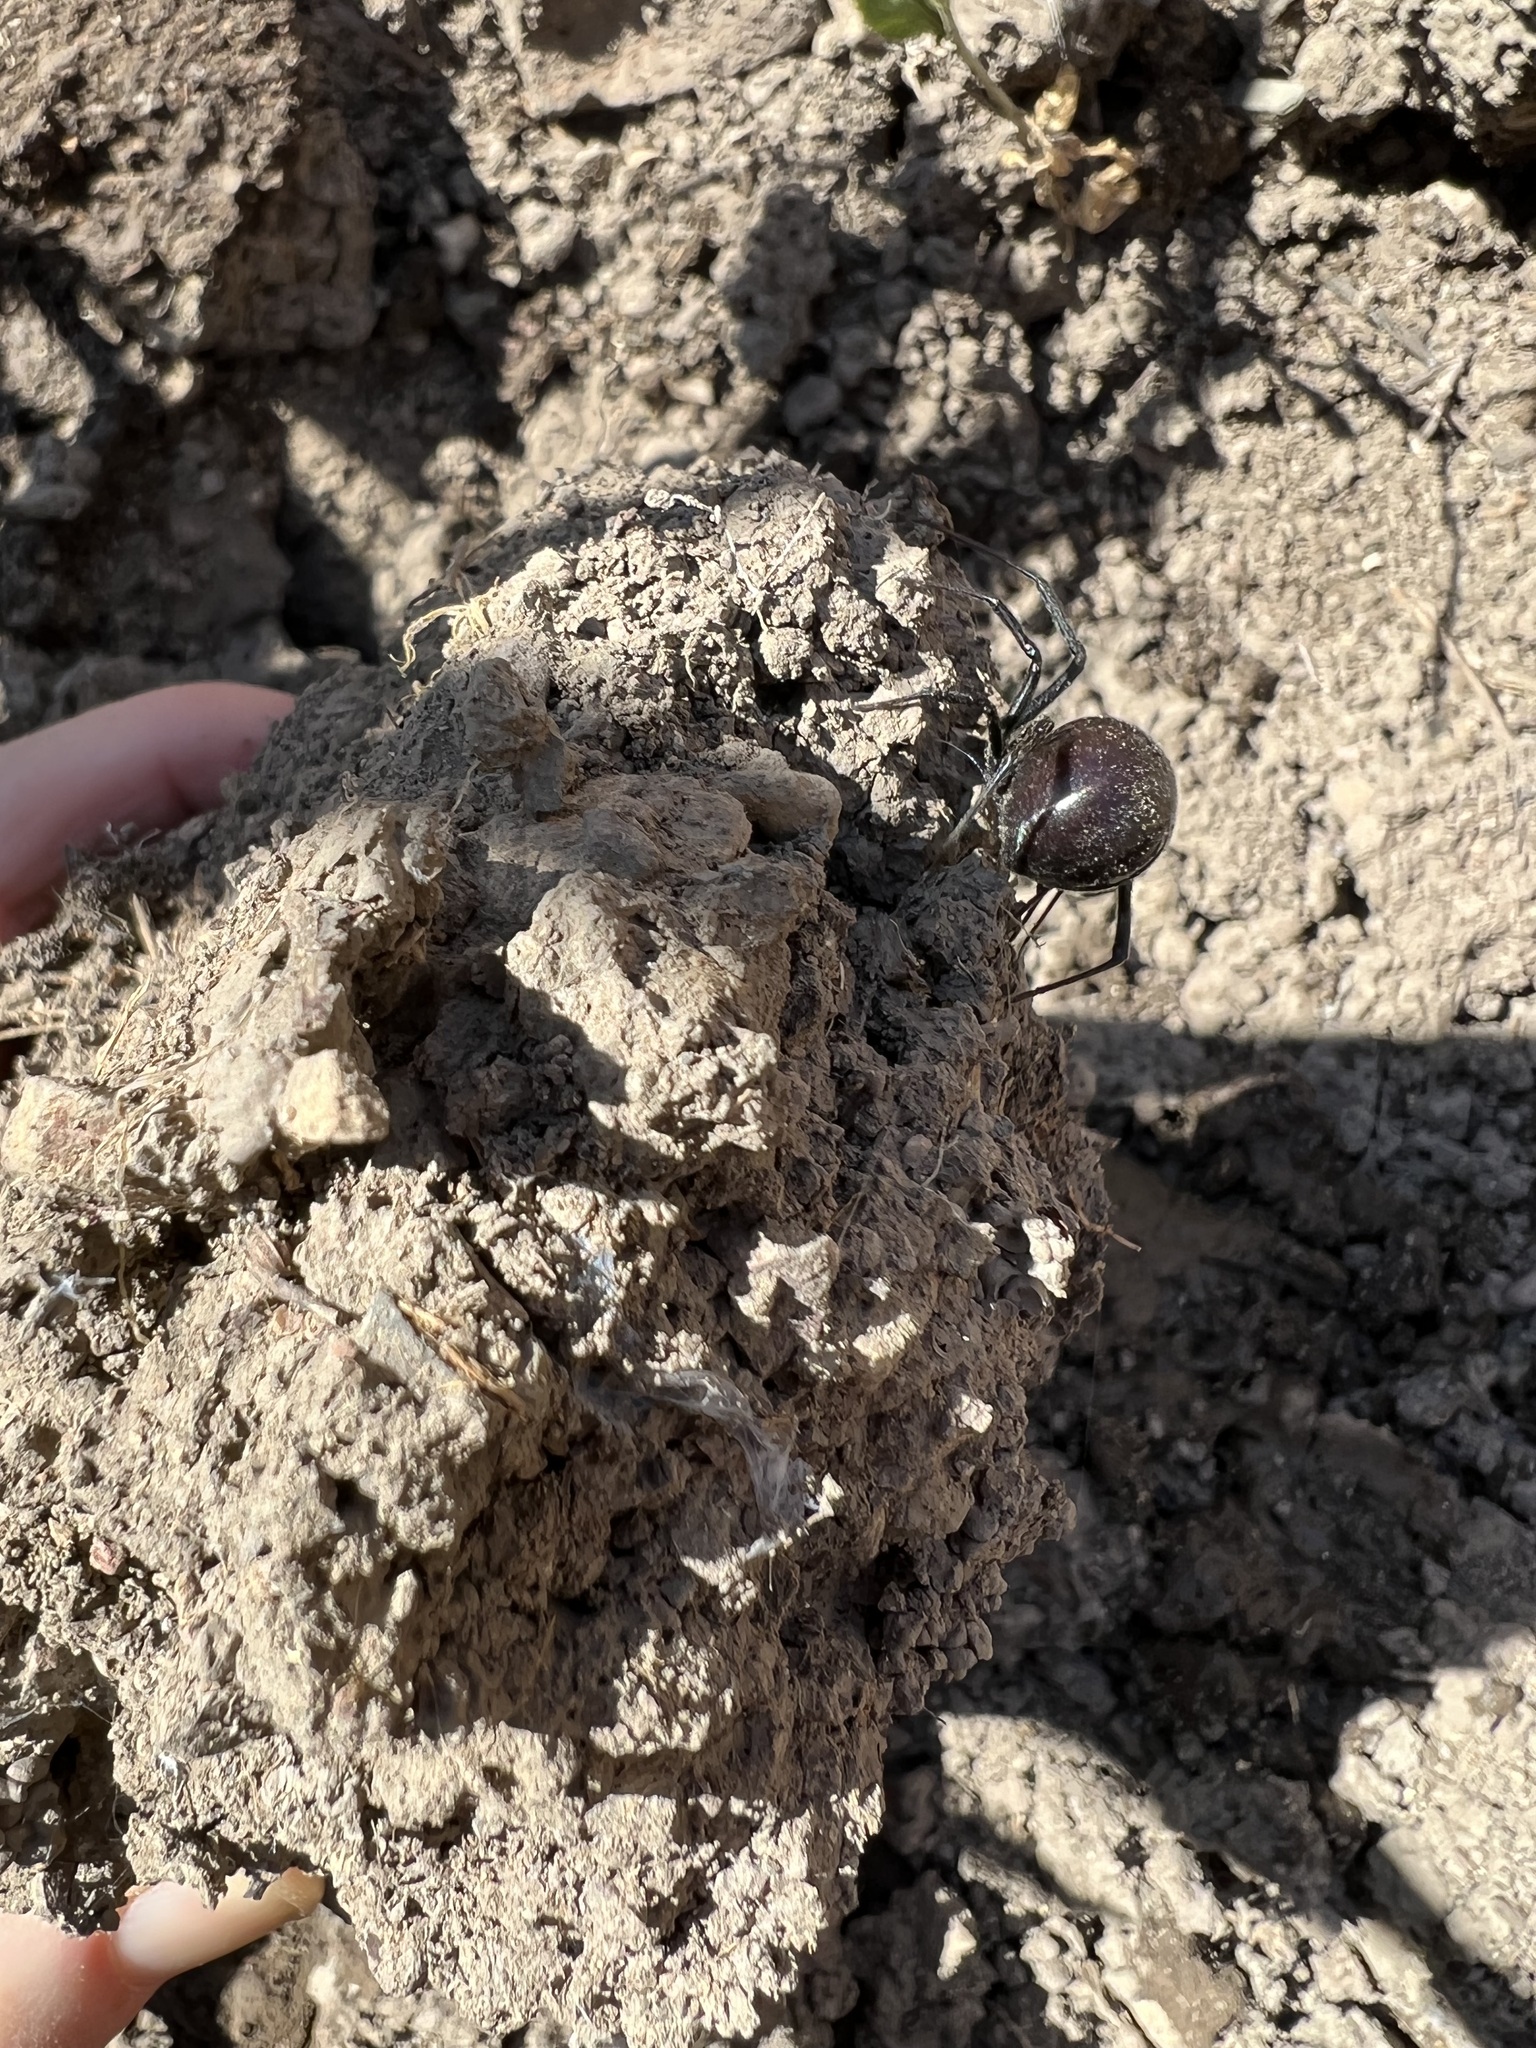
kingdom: Animalia
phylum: Arthropoda
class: Arachnida
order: Araneae
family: Theridiidae
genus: Latrodectus
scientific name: Latrodectus hesperus
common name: Western black widow
